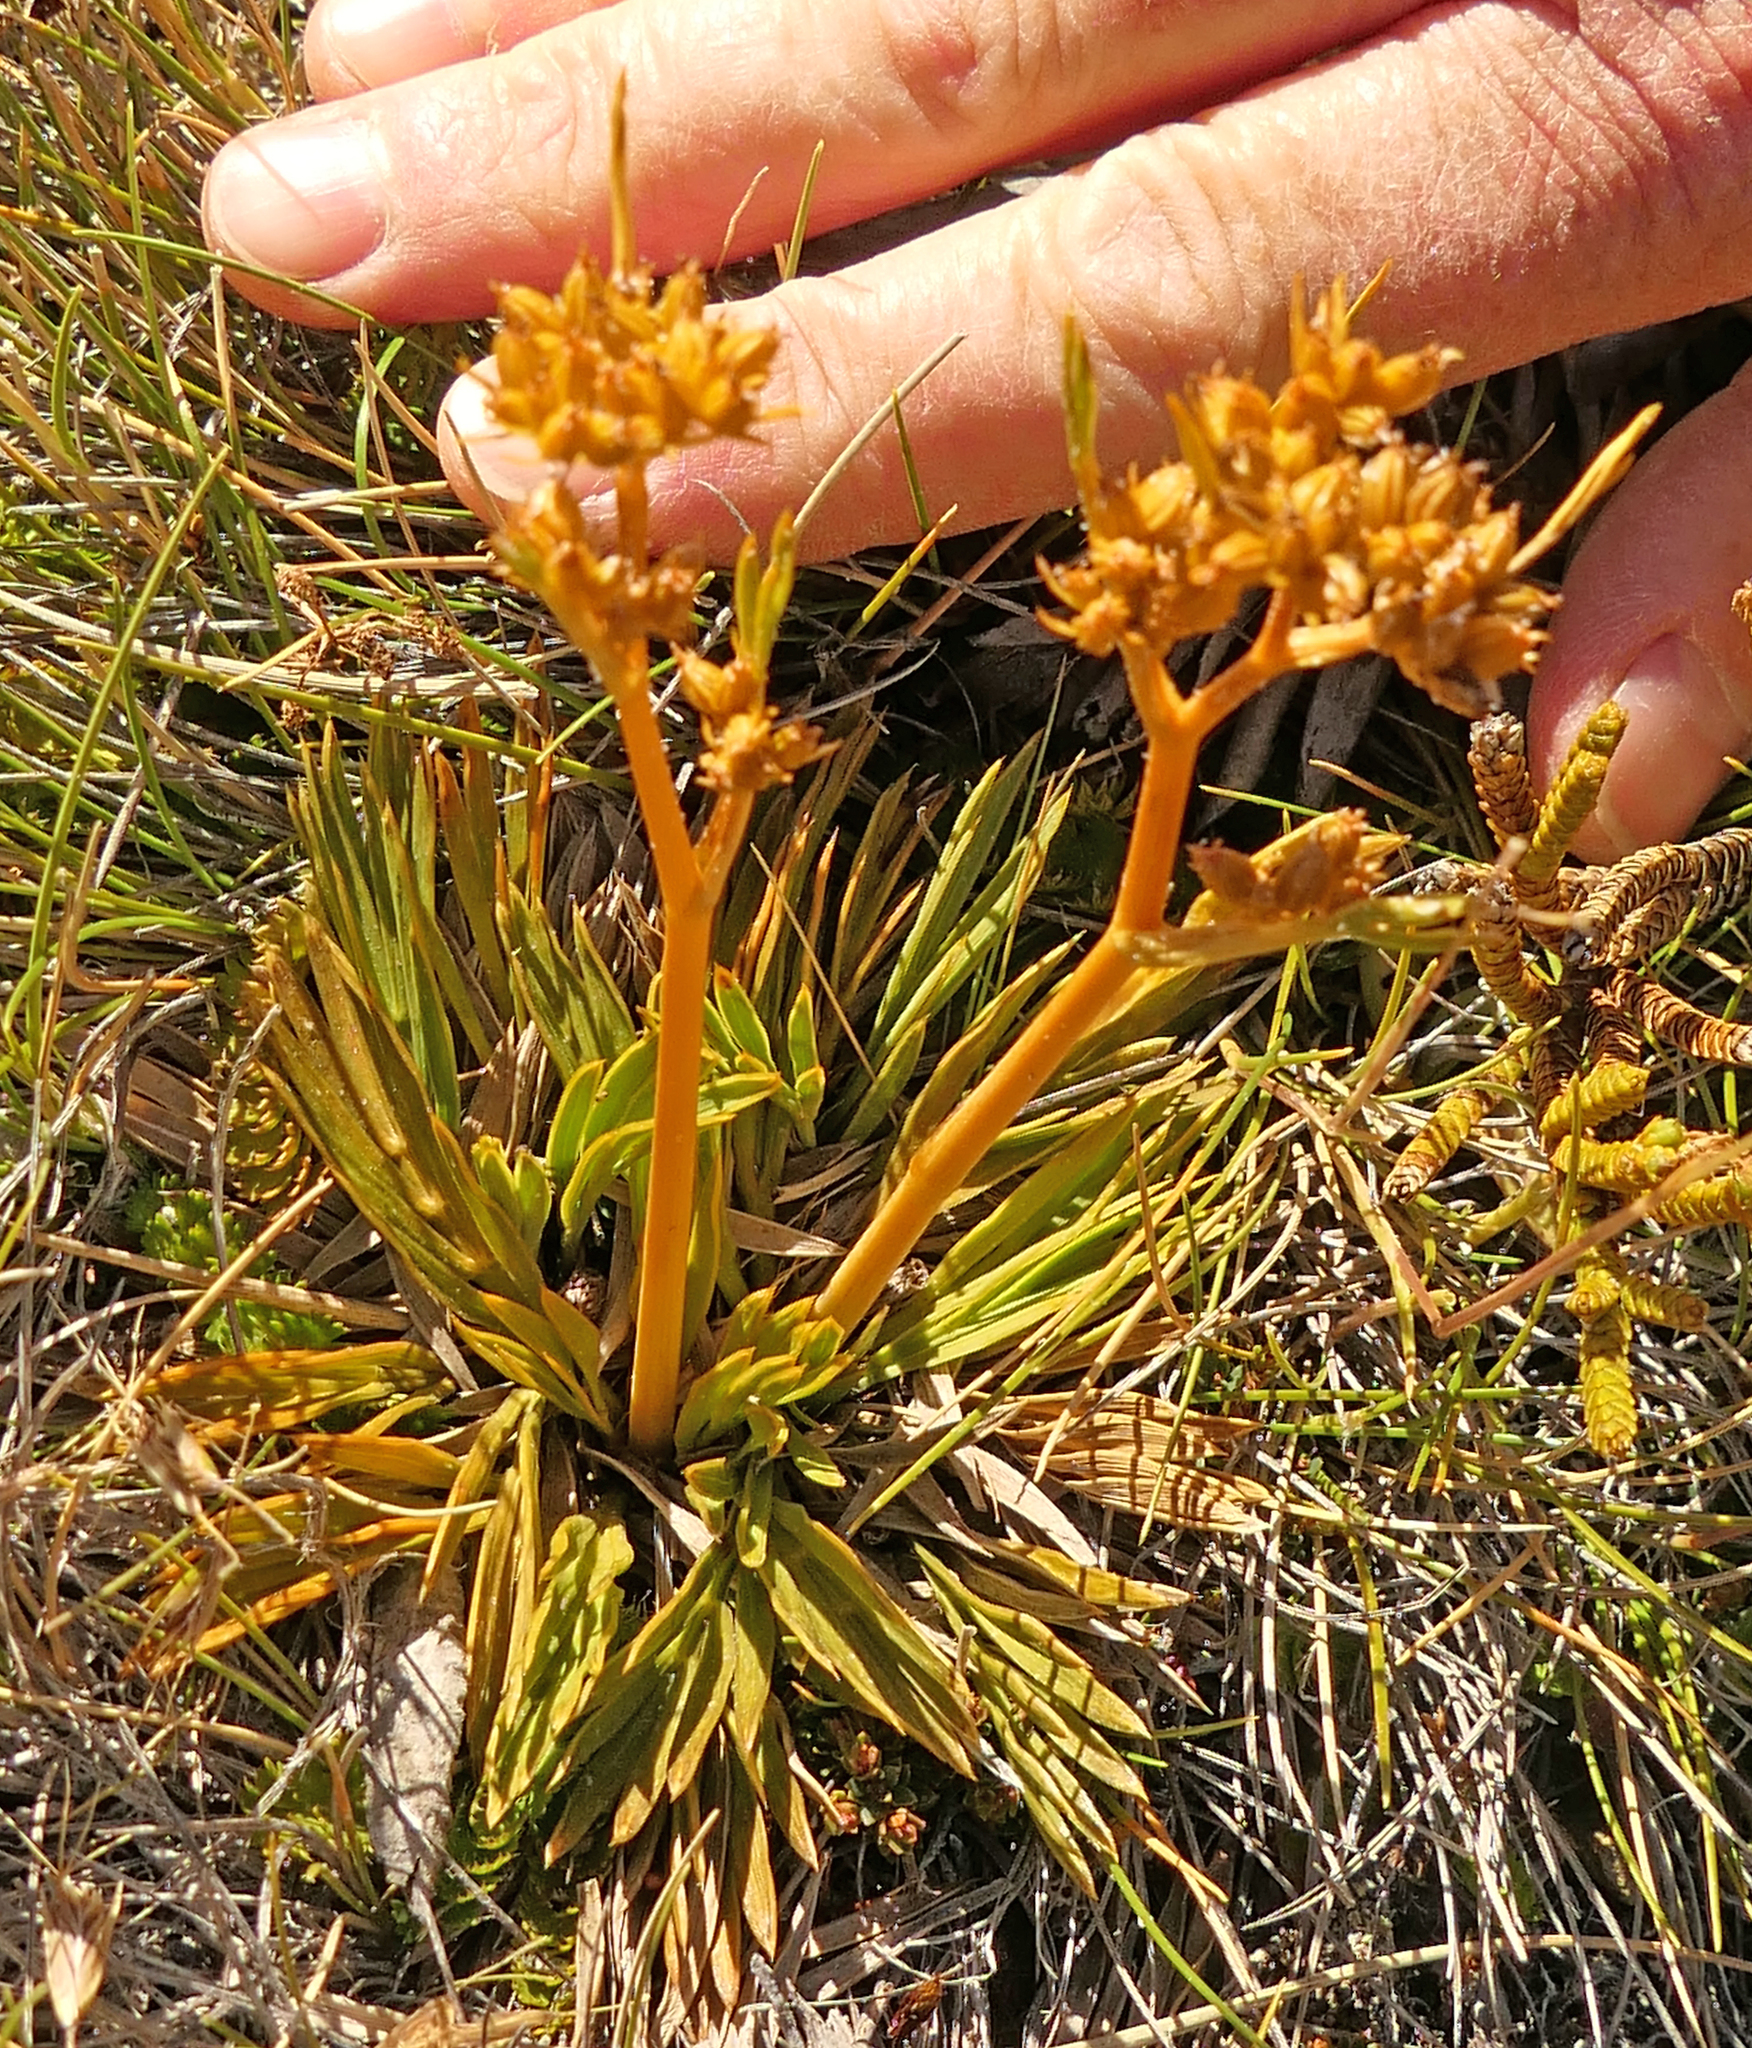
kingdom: Plantae
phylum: Tracheophyta
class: Magnoliopsida
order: Apiales
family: Apiaceae
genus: Aciphylla
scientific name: Aciphylla monroi
